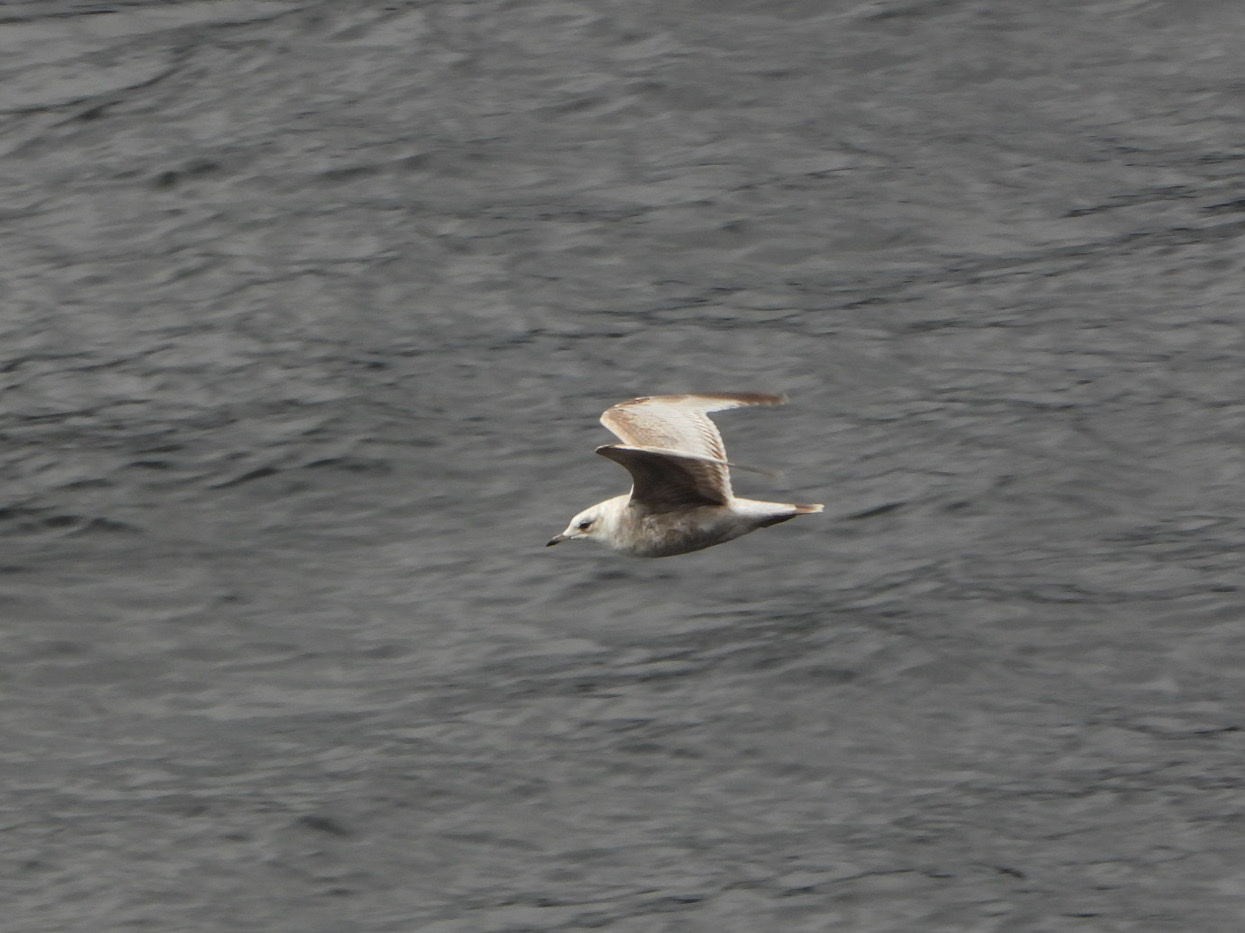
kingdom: Animalia
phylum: Chordata
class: Aves
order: Charadriiformes
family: Laridae
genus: Larus
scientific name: Larus brachyrhynchus
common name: Short-billed gull
